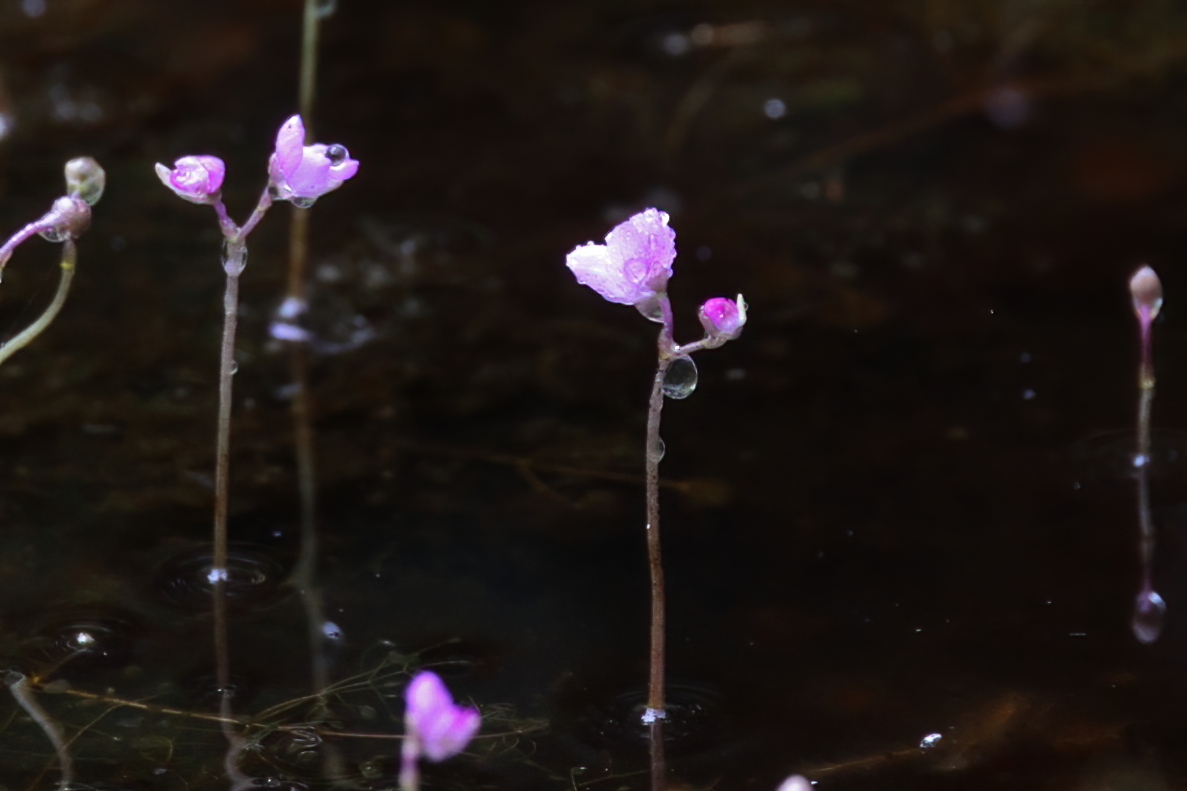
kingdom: Plantae
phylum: Tracheophyta
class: Magnoliopsida
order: Lamiales
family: Lentibulariaceae
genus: Utricularia
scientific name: Utricularia purpurea
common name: Eastern purple bladderwort
